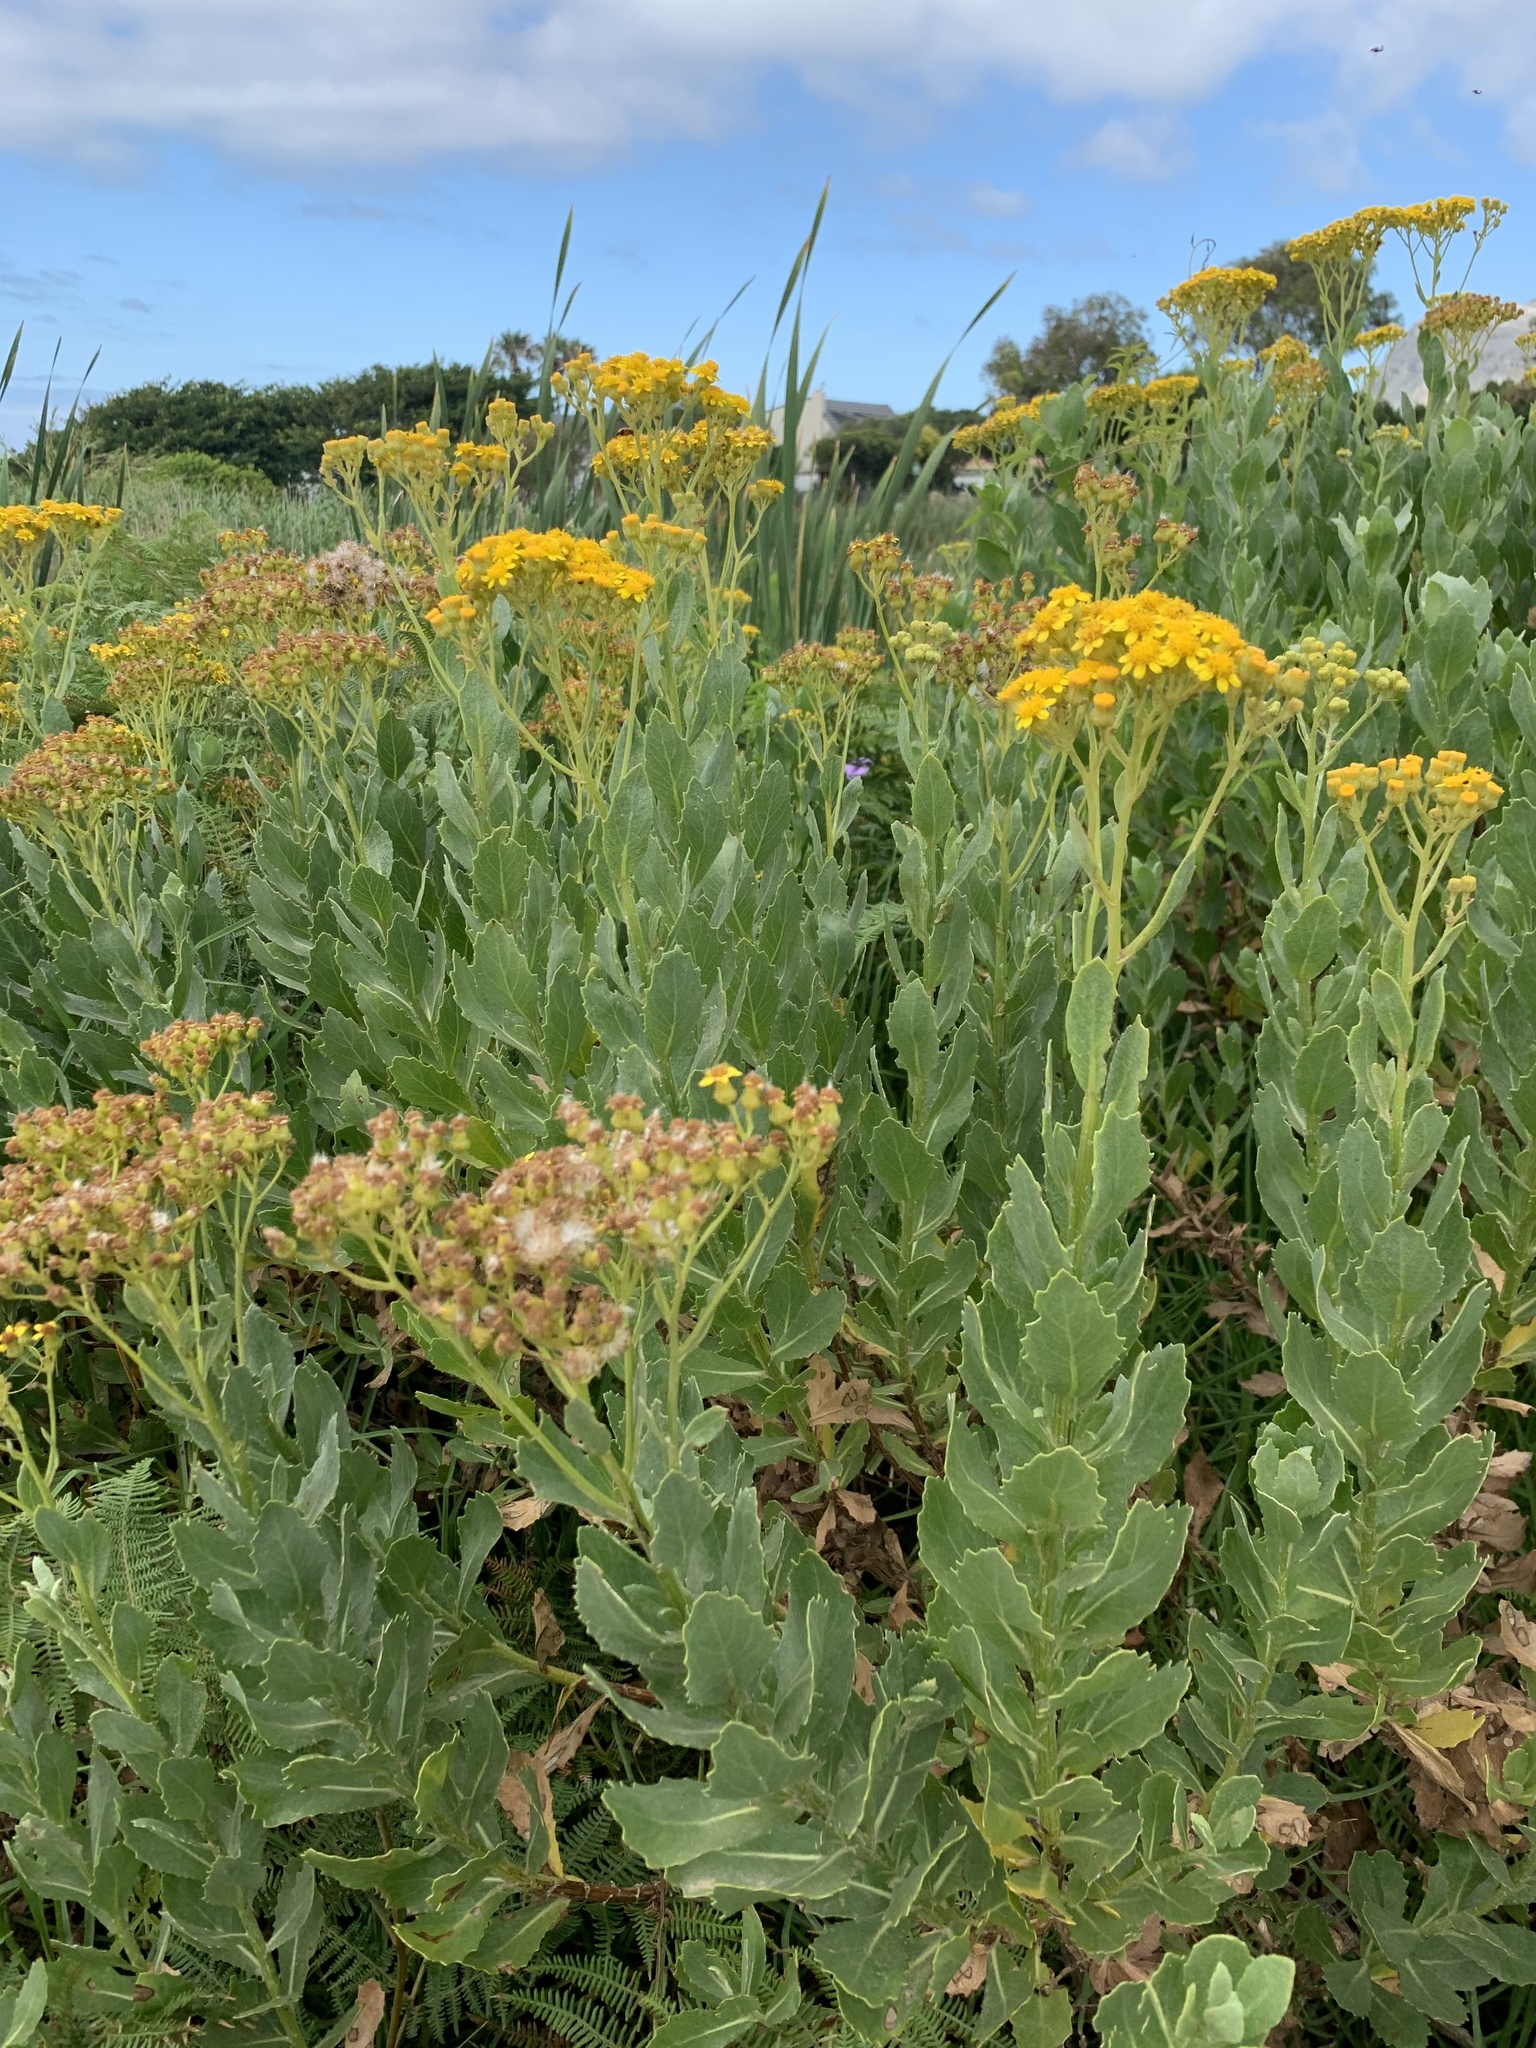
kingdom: Plantae
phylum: Tracheophyta
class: Magnoliopsida
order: Asterales
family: Asteraceae
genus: Senecio
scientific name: Senecio halimifolius
